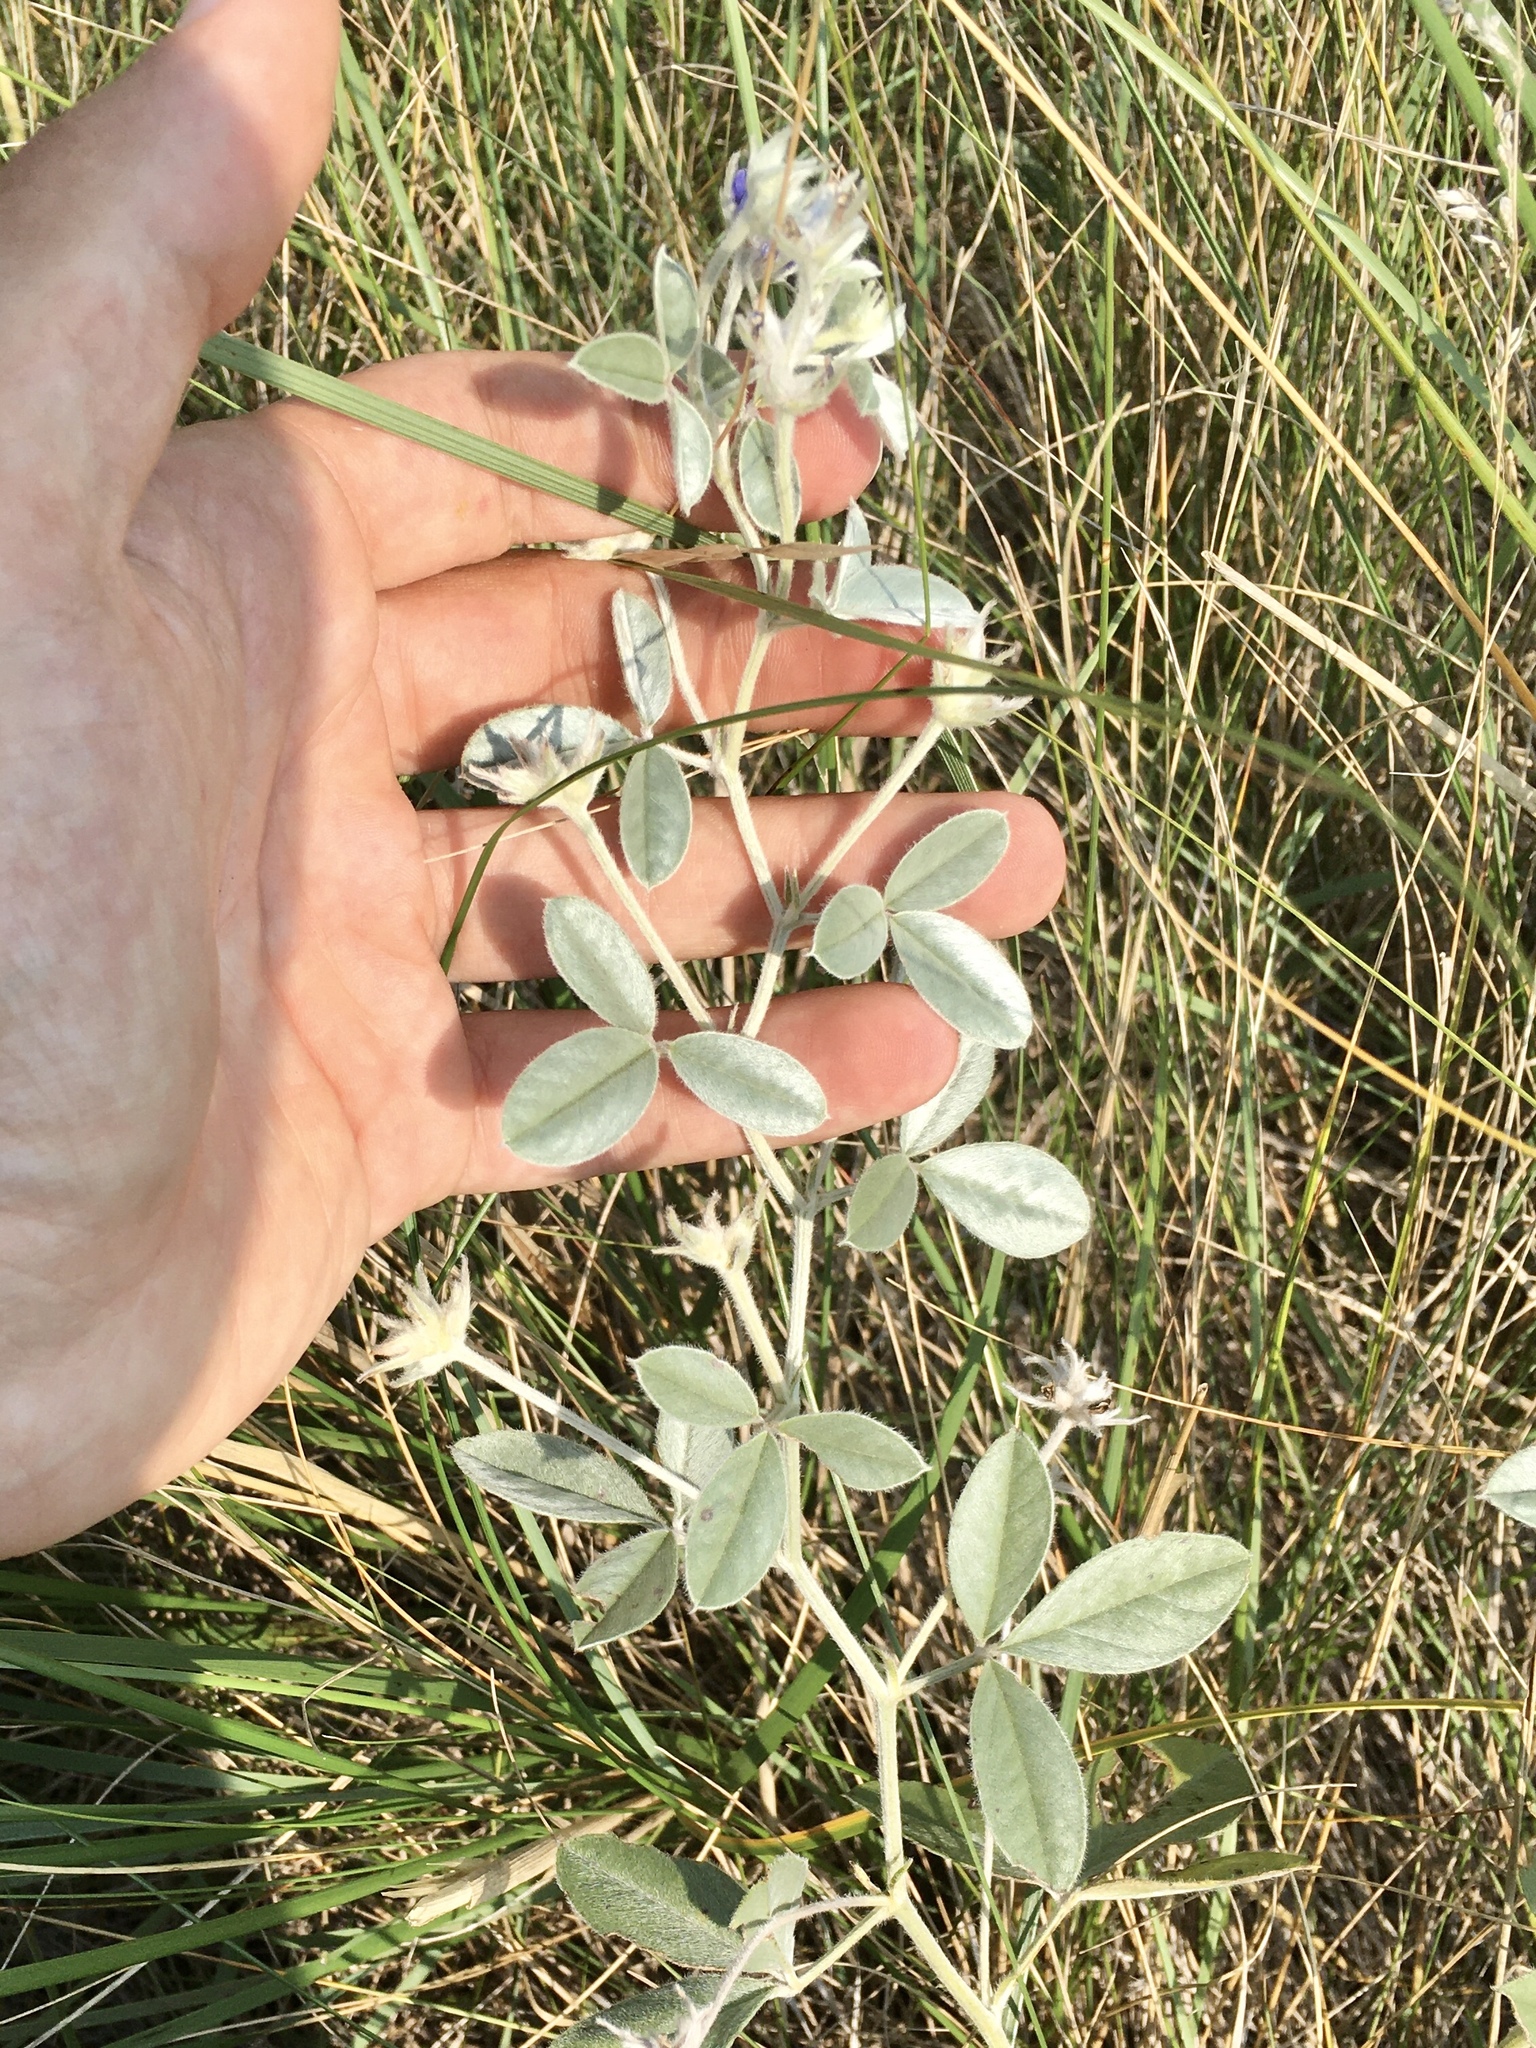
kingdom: Plantae
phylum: Tracheophyta
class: Magnoliopsida
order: Fabales
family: Fabaceae
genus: Pediomelum
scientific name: Pediomelum argophyllum
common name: Silver-leaved indian breadroot
